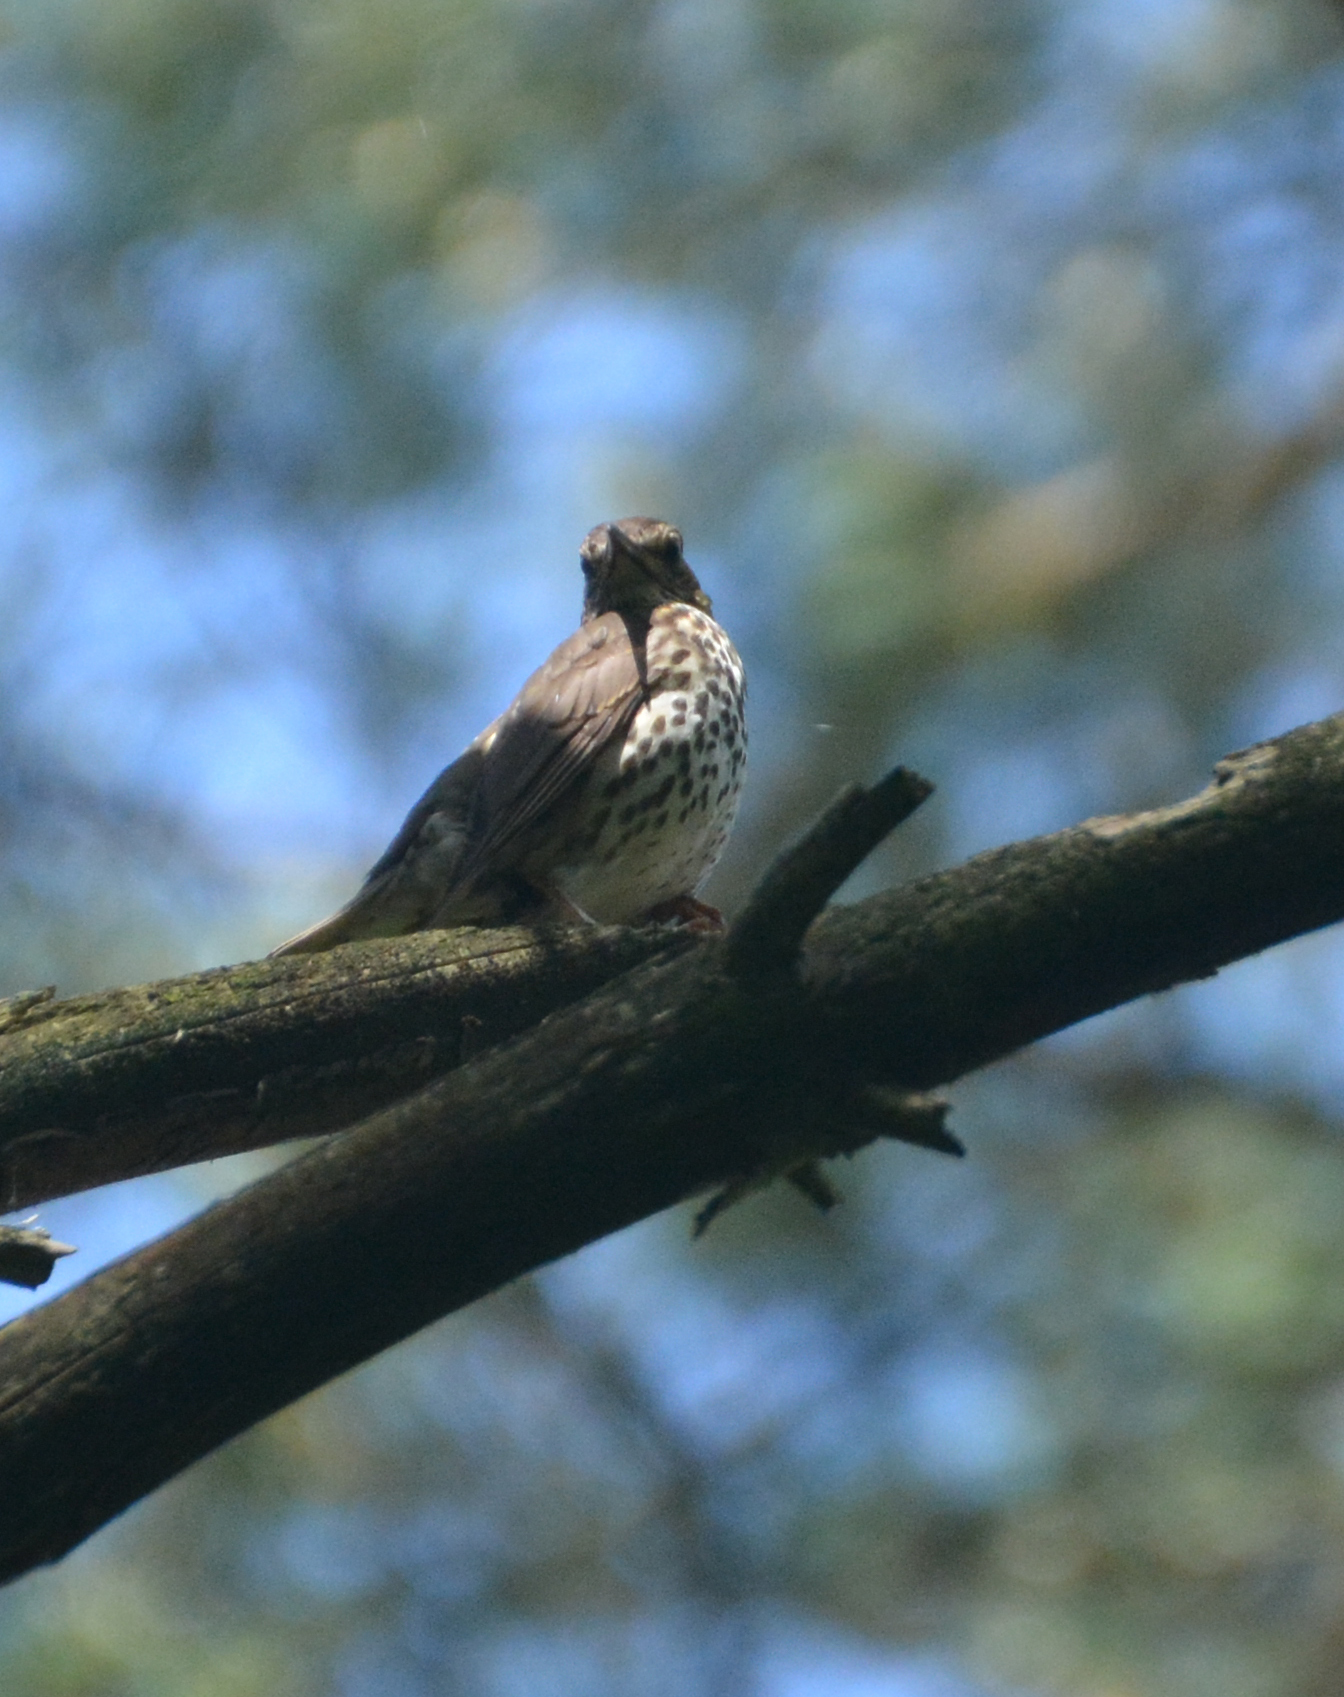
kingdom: Animalia
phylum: Chordata
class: Aves
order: Passeriformes
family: Turdidae
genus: Turdus
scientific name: Turdus philomelos
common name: Song thrush
